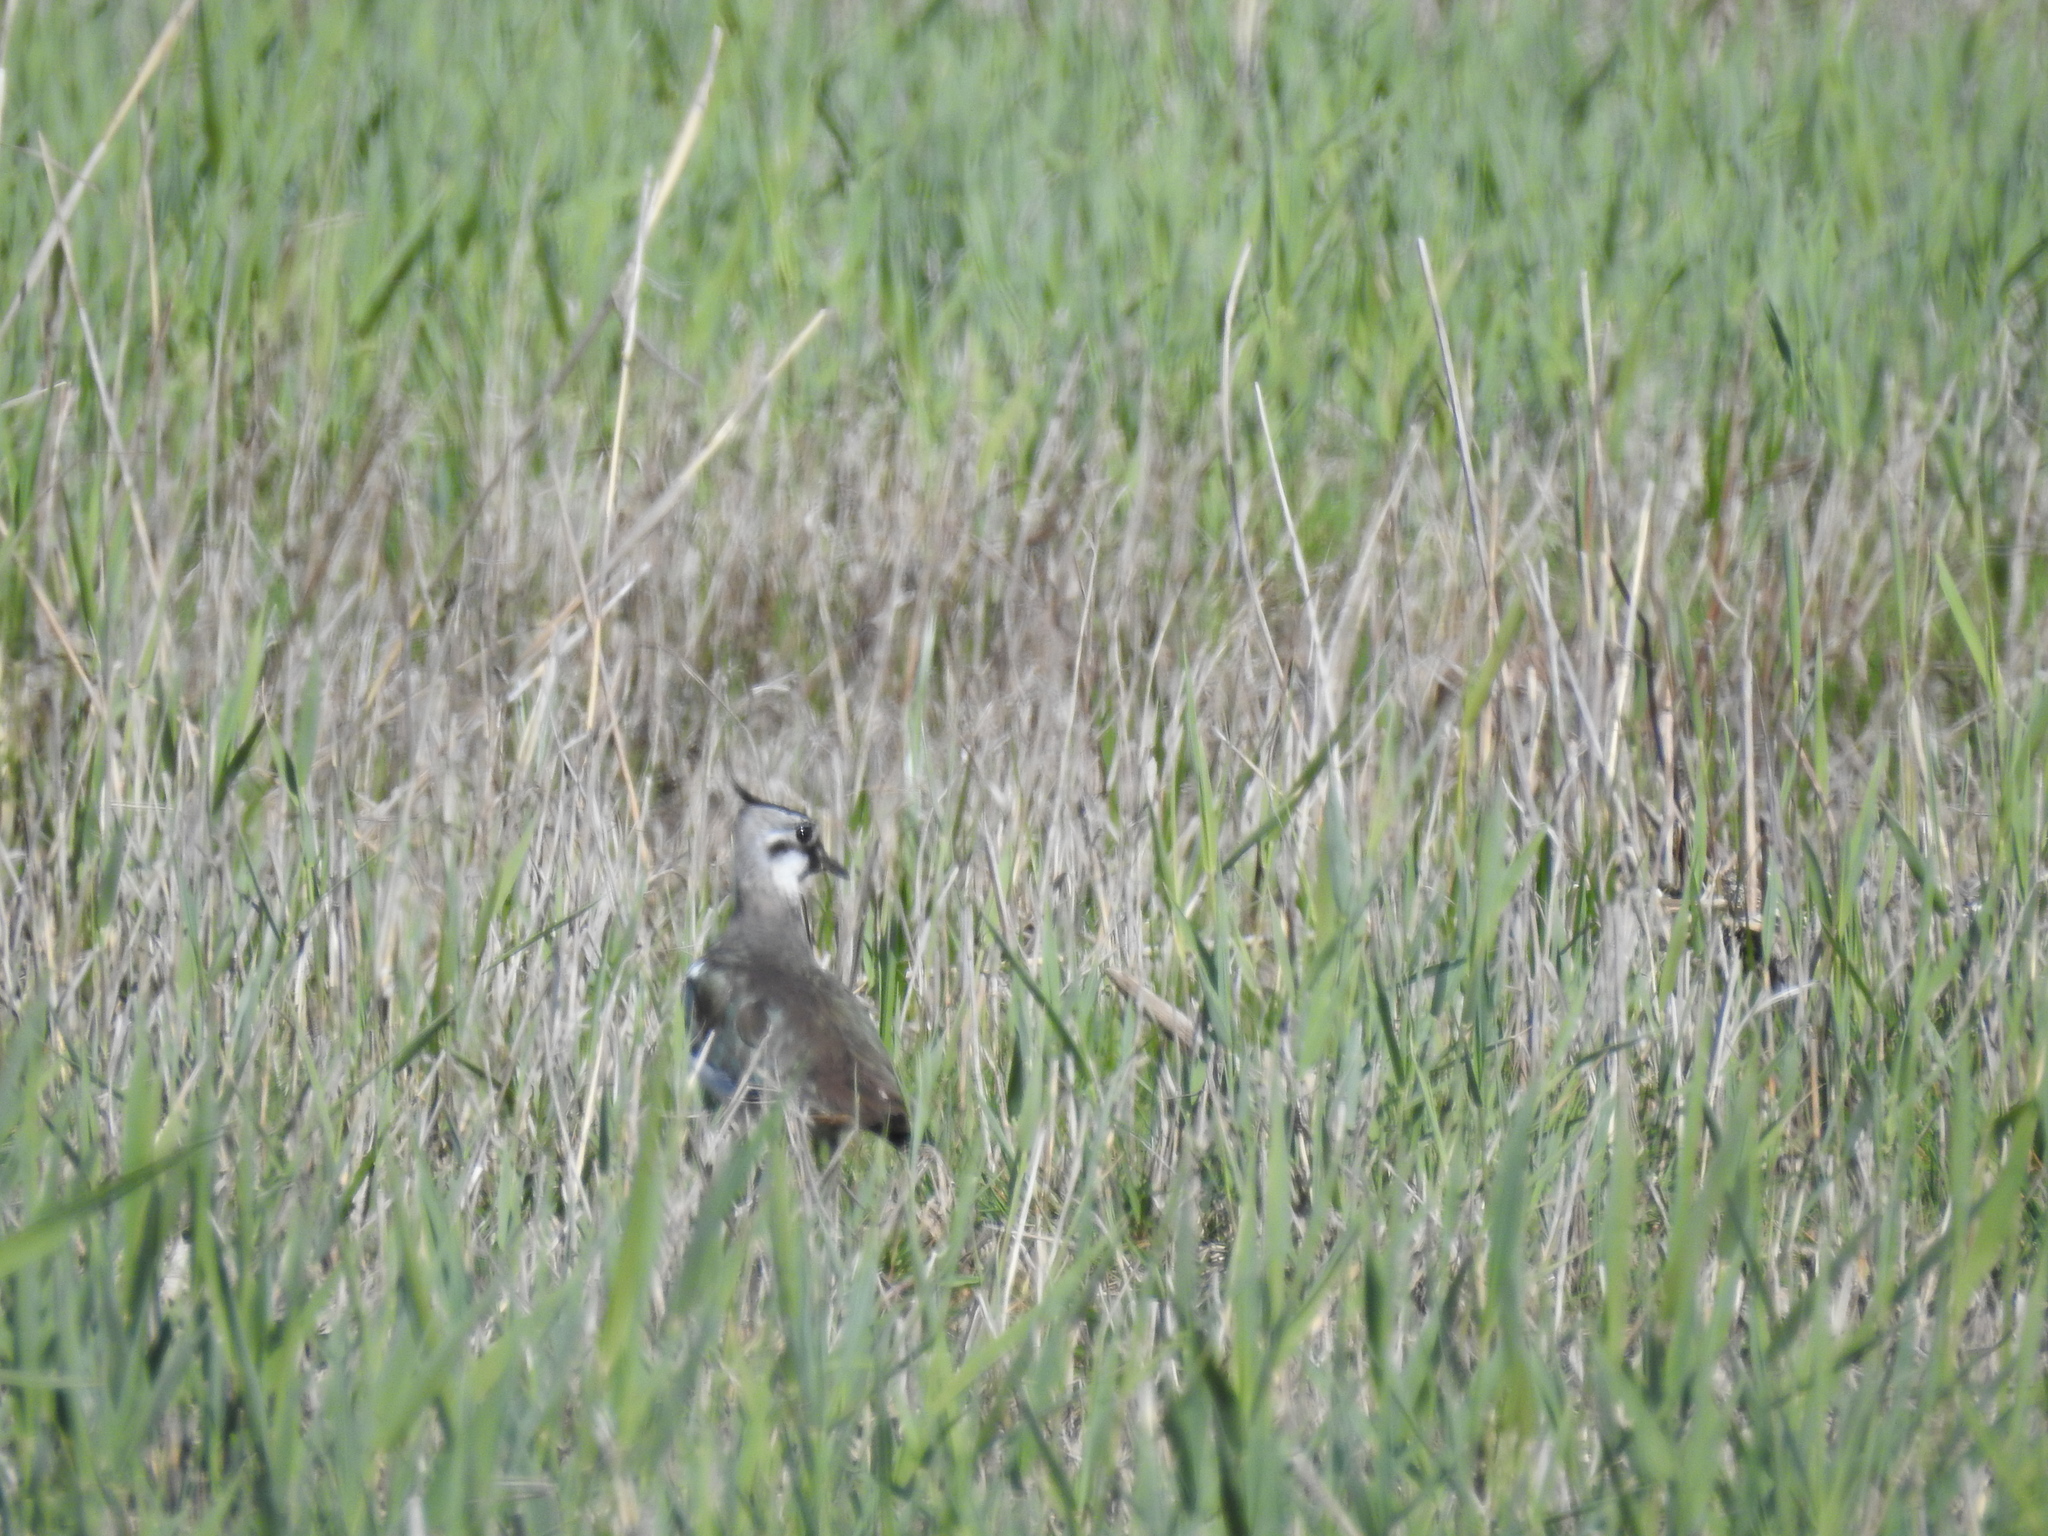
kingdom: Animalia
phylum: Chordata
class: Aves
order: Charadriiformes
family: Charadriidae
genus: Vanellus
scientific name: Vanellus vanellus
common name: Northern lapwing
